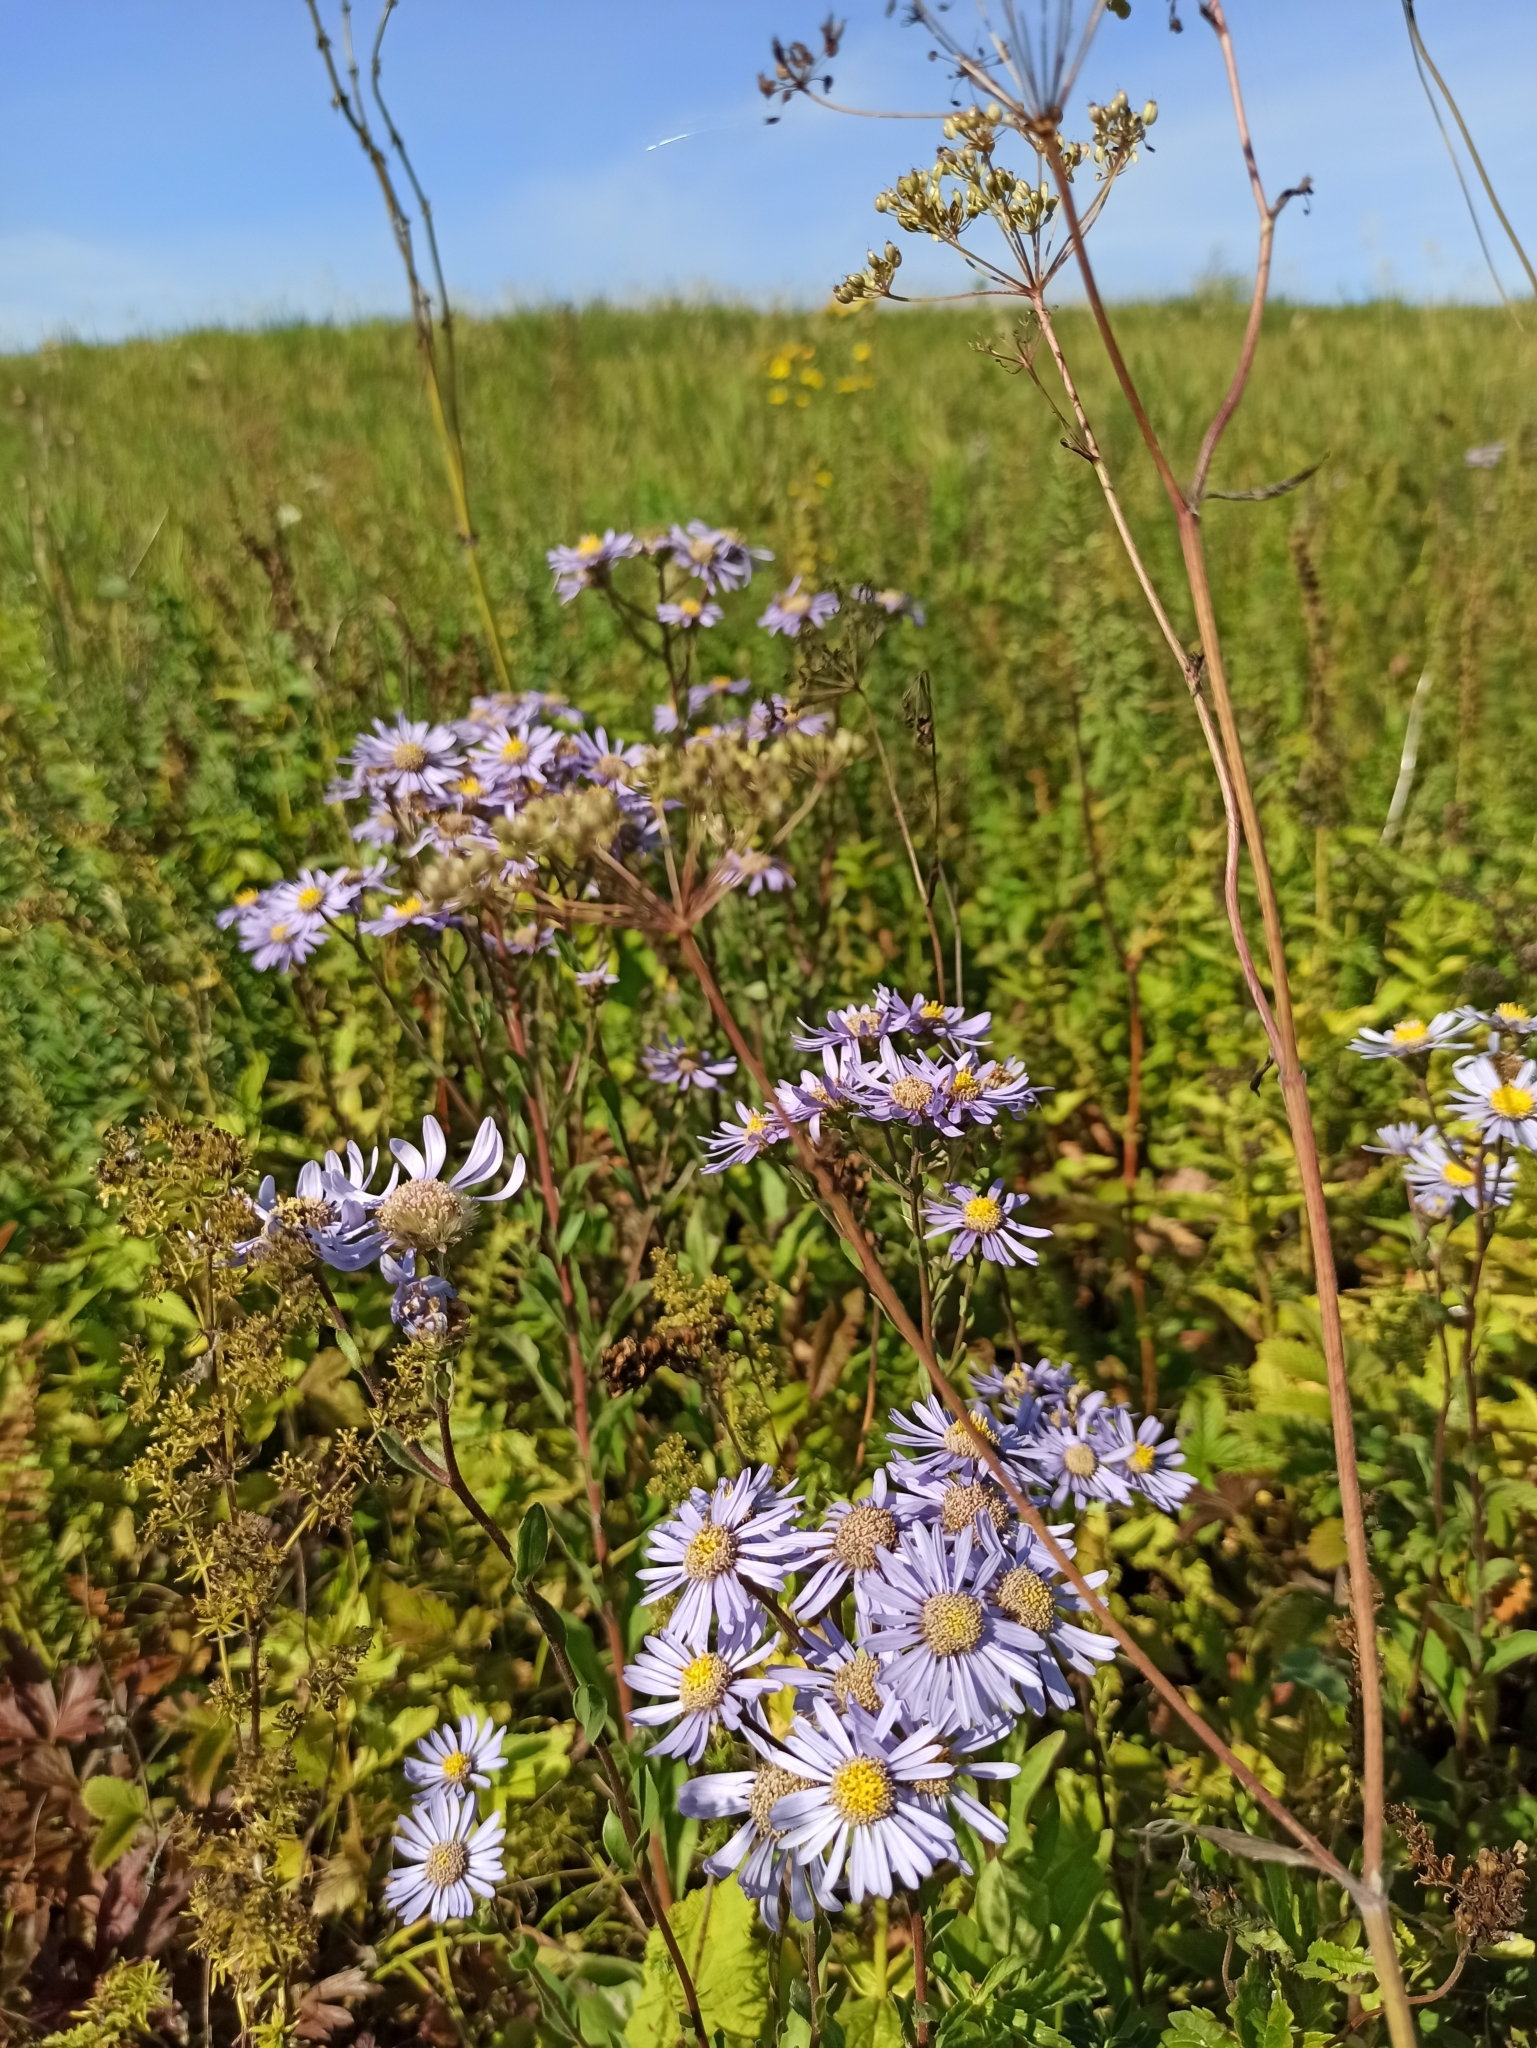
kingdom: Plantae
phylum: Tracheophyta
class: Magnoliopsida
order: Asterales
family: Asteraceae
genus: Aster
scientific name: Aster amellus
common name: European michaelmas daisy
